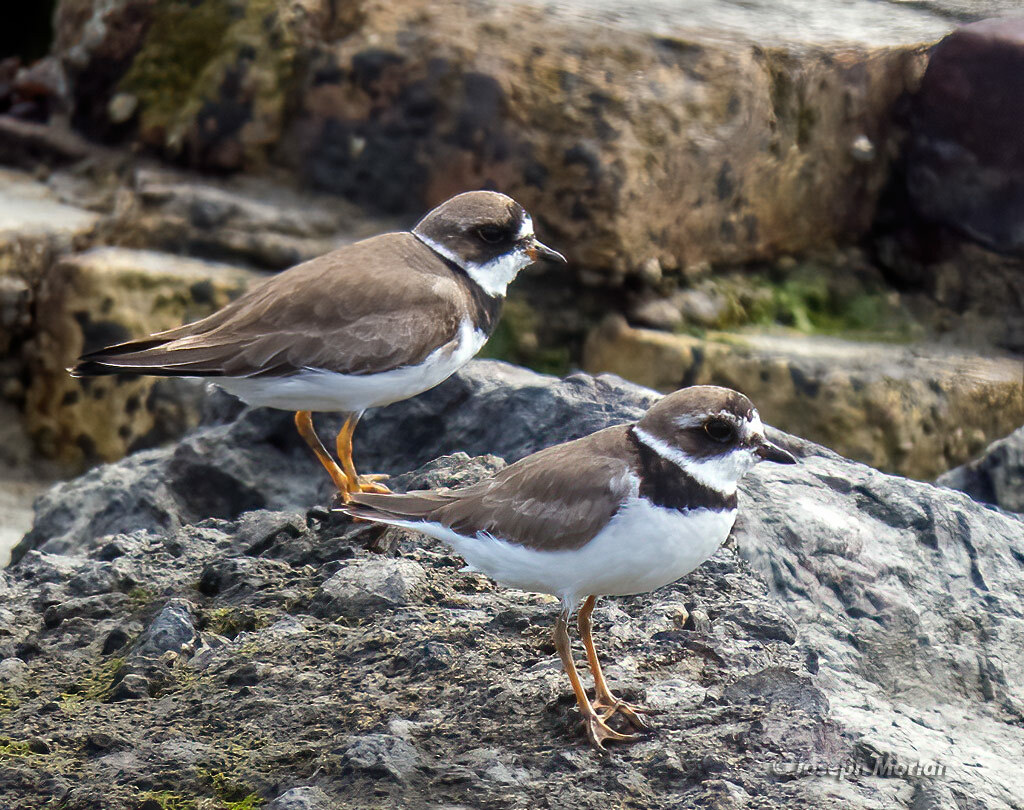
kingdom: Animalia
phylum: Chordata
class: Aves
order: Charadriiformes
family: Charadriidae
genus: Charadrius
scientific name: Charadrius semipalmatus
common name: Semipalmated plover
